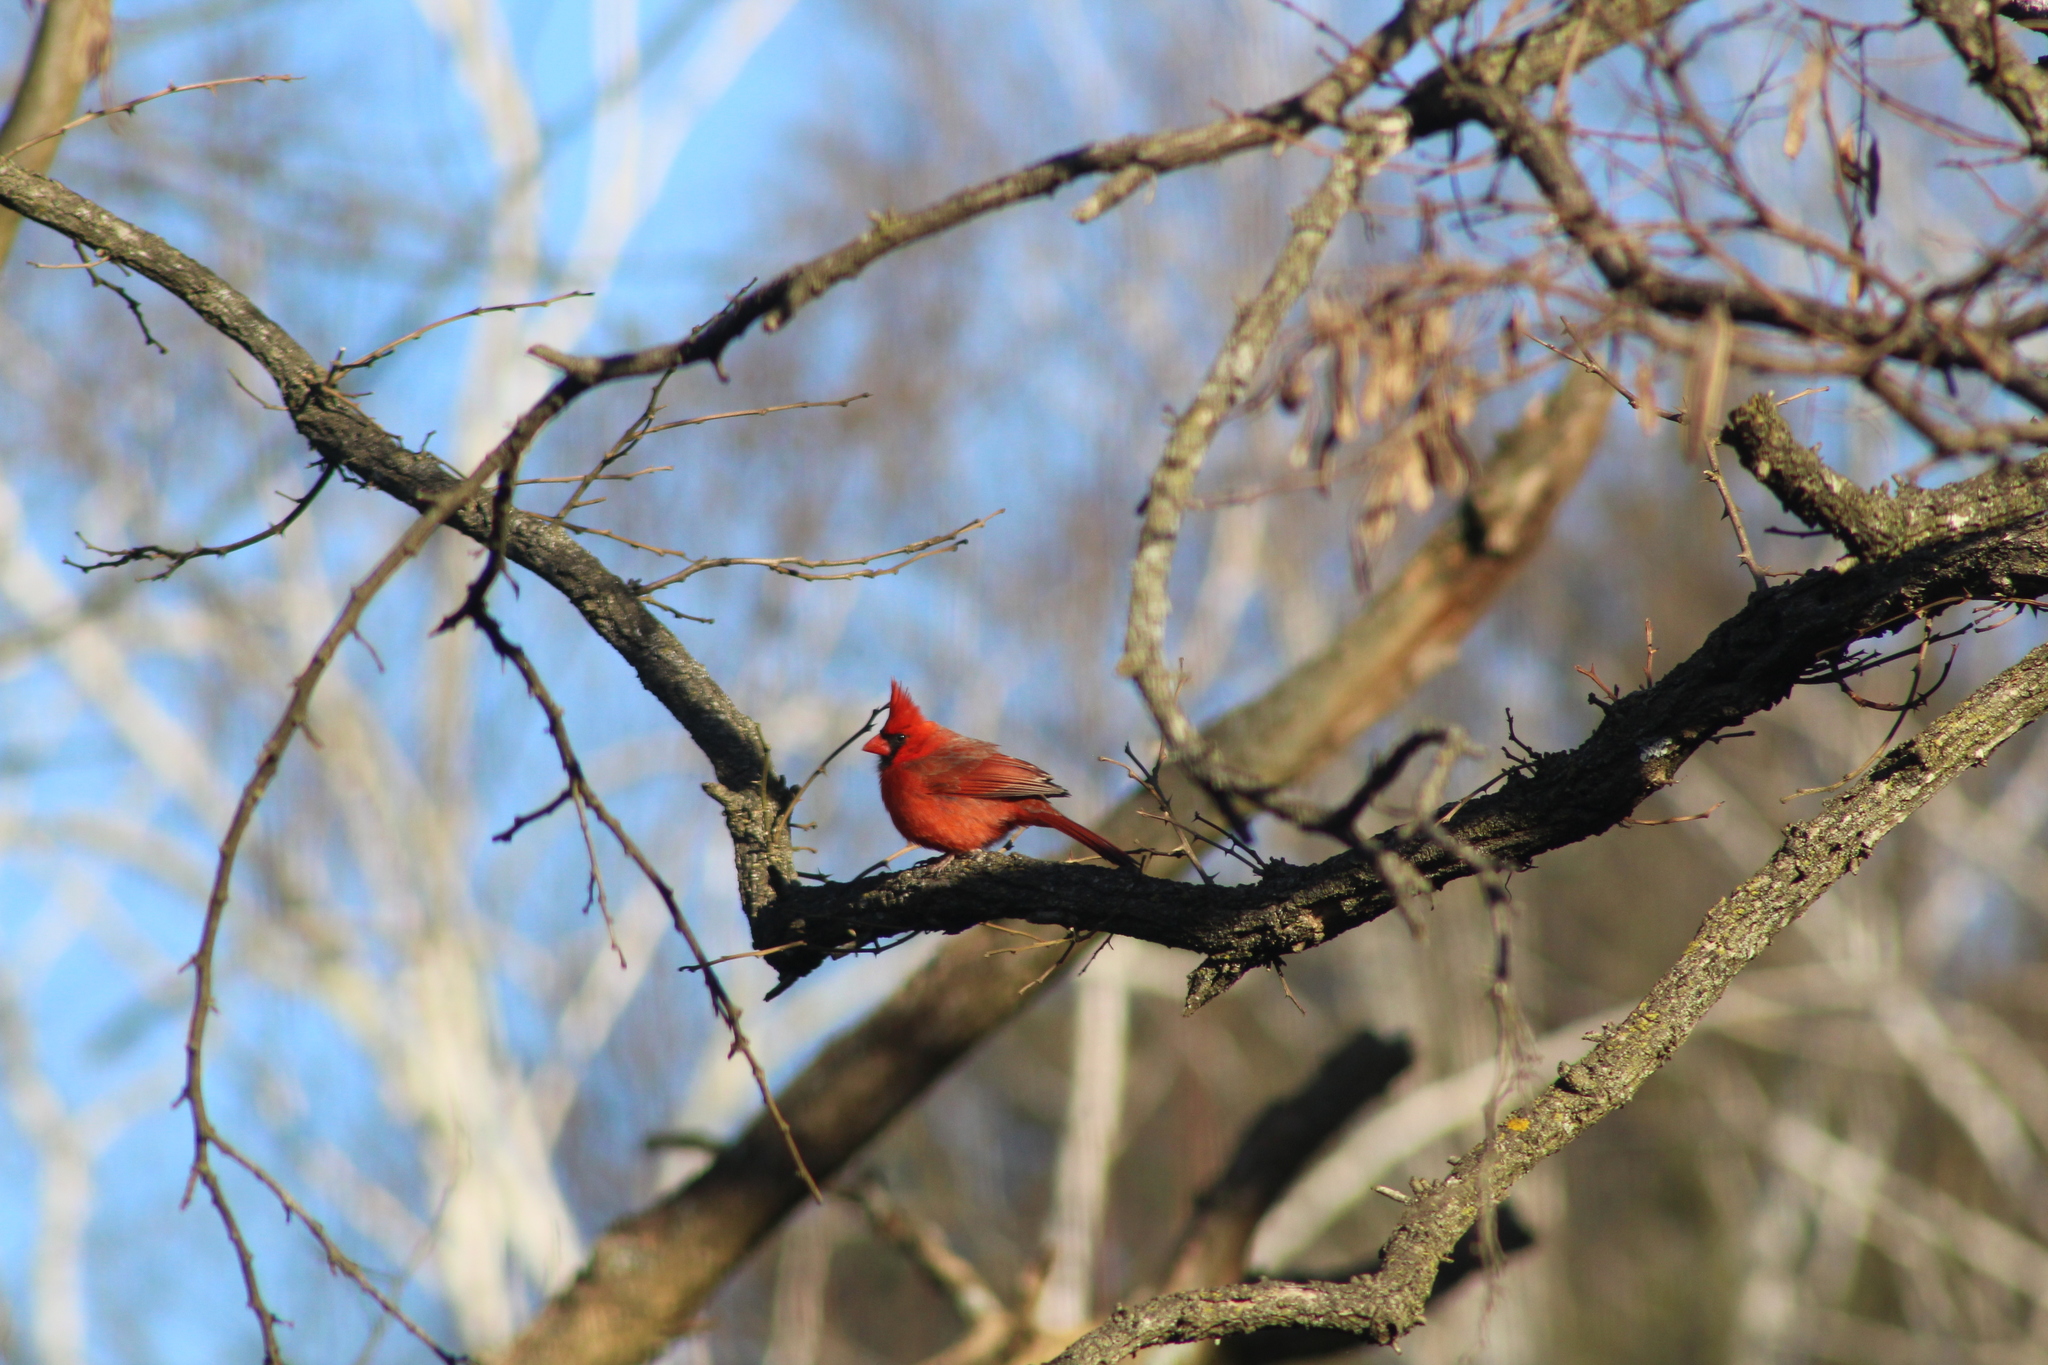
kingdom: Animalia
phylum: Chordata
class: Aves
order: Passeriformes
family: Cardinalidae
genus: Cardinalis
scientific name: Cardinalis cardinalis
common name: Northern cardinal
